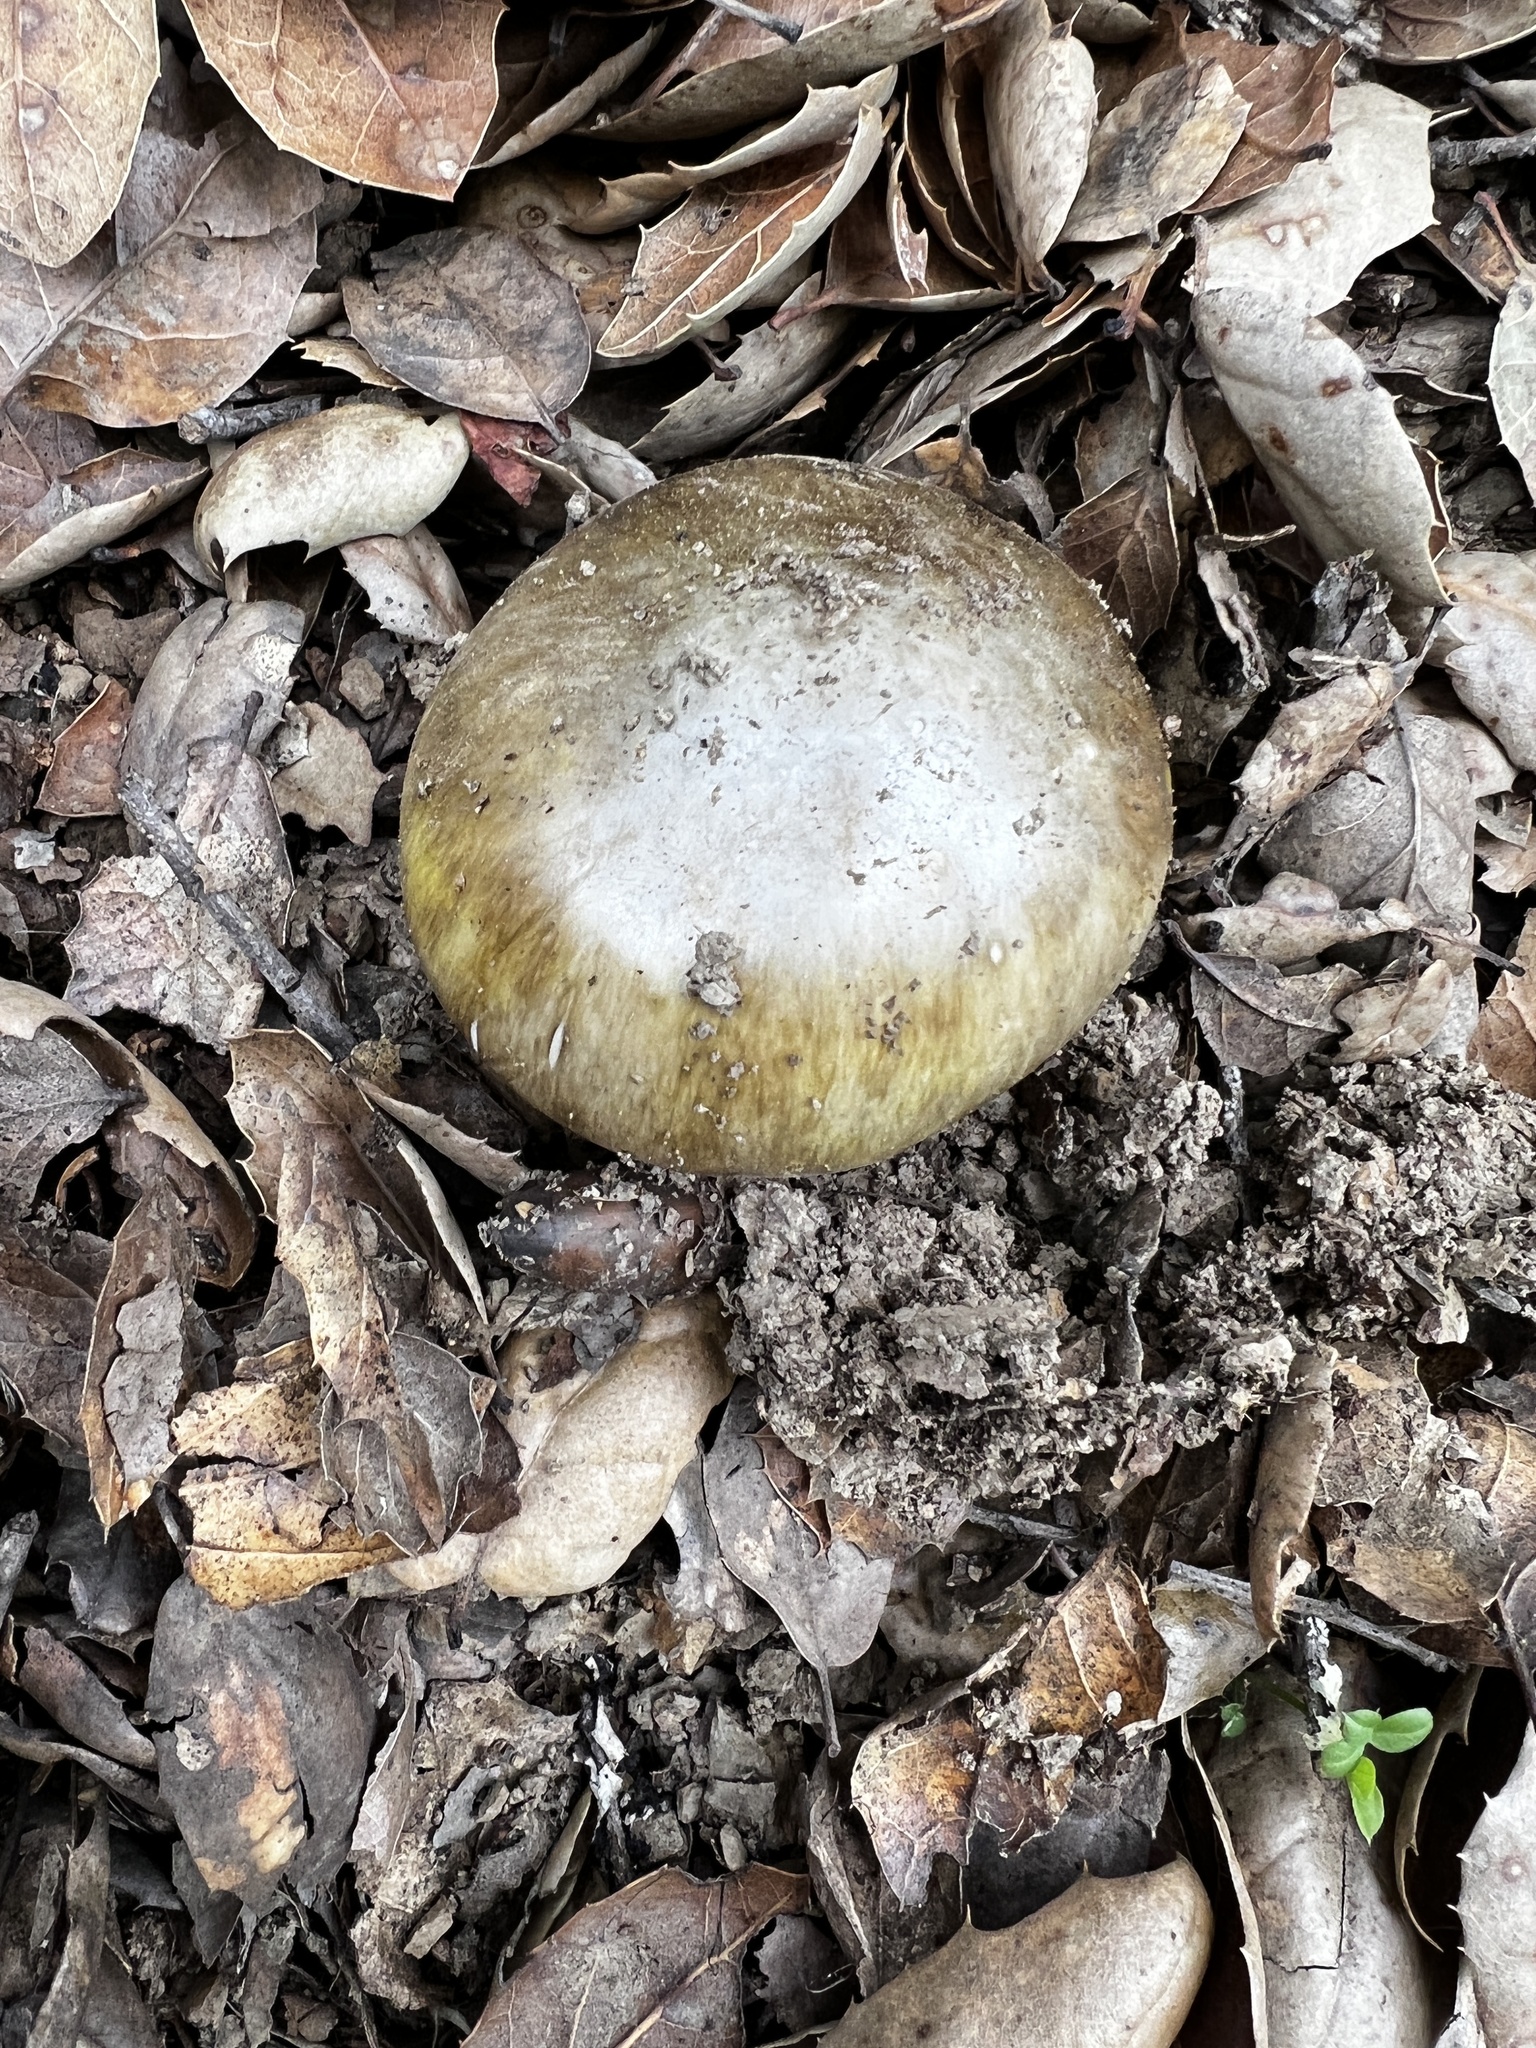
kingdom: Fungi
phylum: Basidiomycota
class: Agaricomycetes
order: Agaricales
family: Amanitaceae
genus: Amanita
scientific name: Amanita phalloides
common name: Death cap
